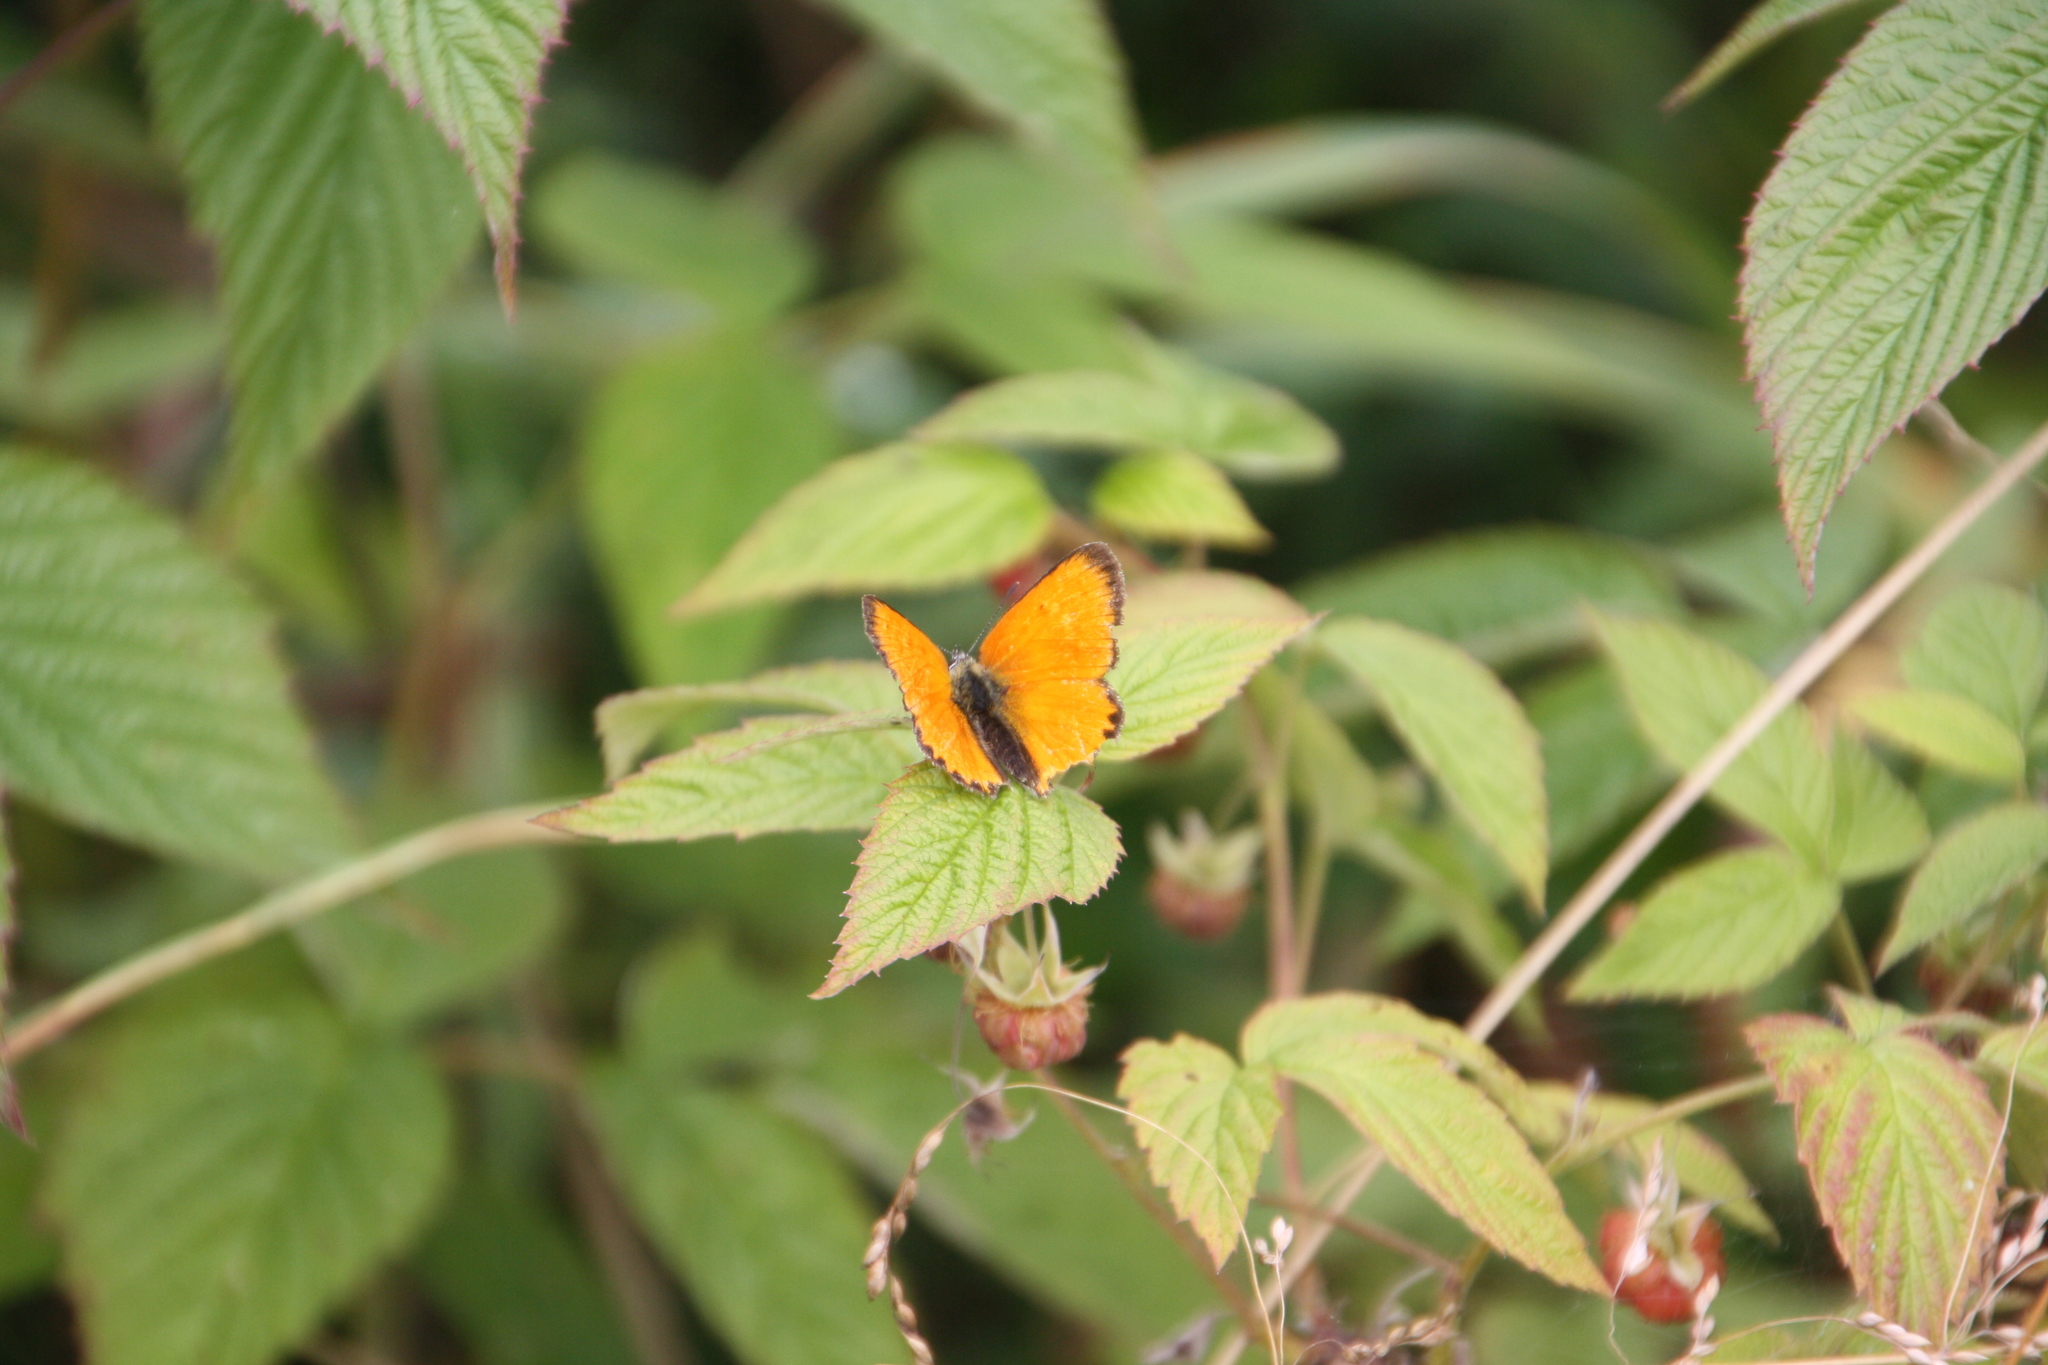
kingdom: Animalia
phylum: Arthropoda
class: Insecta
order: Lepidoptera
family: Lycaenidae
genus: Lycaena
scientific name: Lycaena virgaureae
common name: Scarce copper
